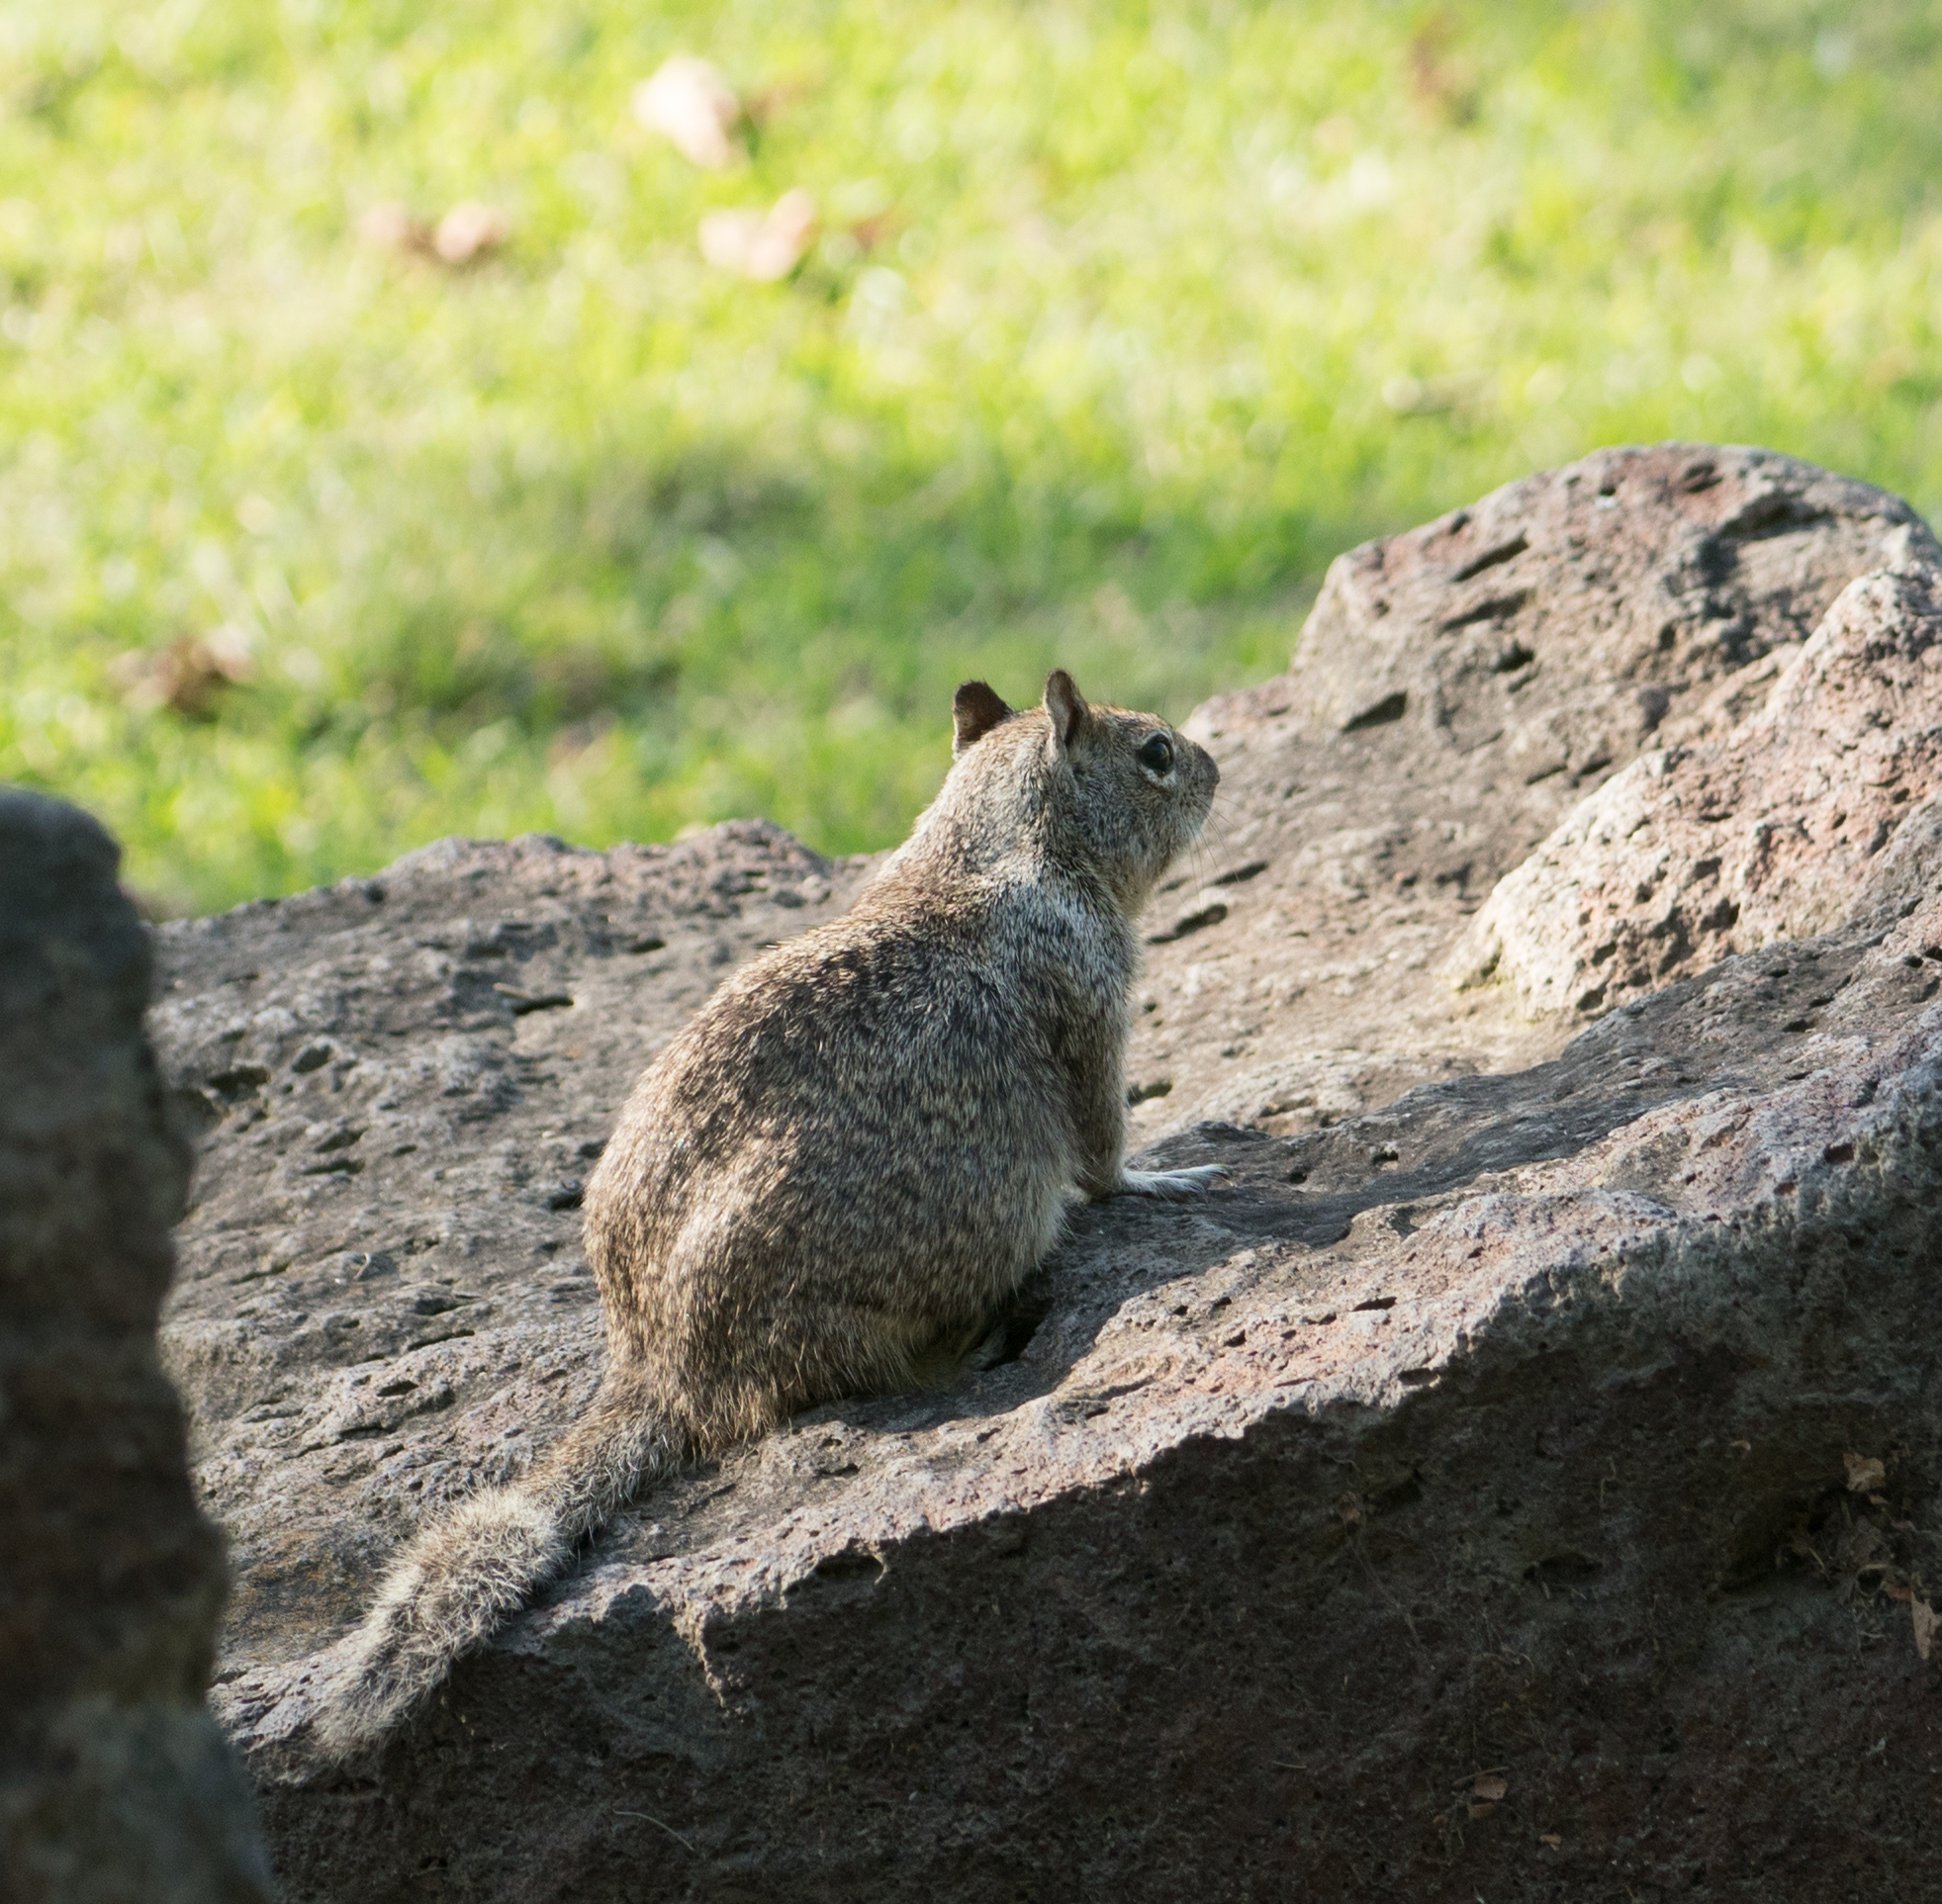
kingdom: Animalia
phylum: Chordata
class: Mammalia
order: Rodentia
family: Sciuridae
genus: Otospermophilus
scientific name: Otospermophilus beecheyi
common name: California ground squirrel
